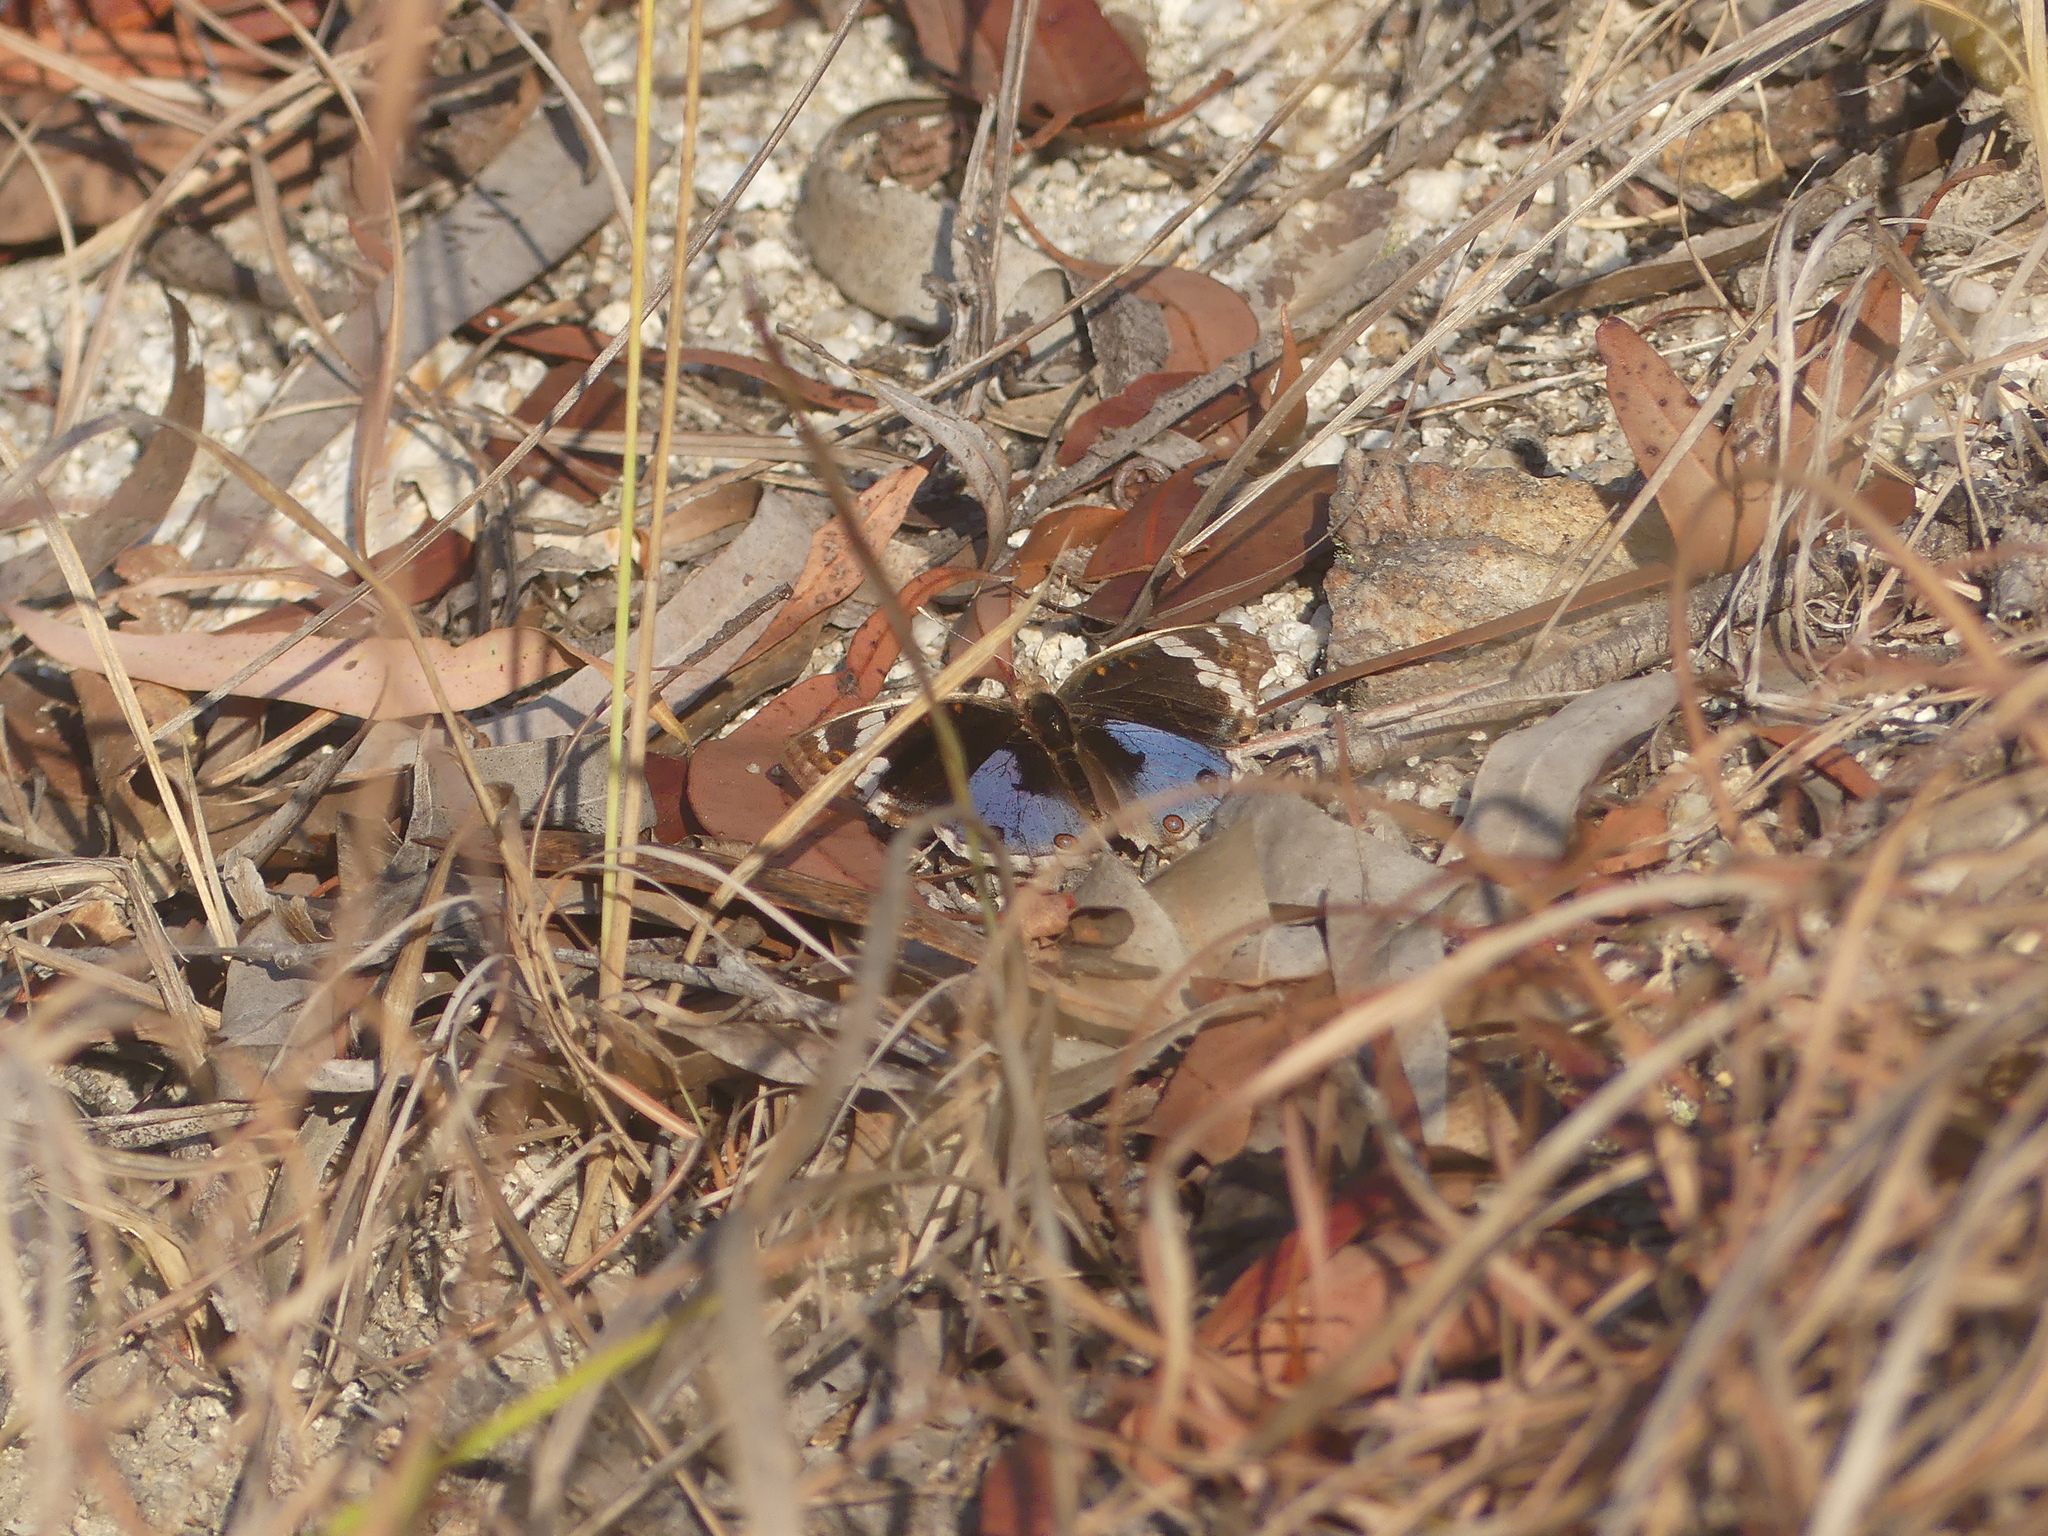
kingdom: Animalia
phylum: Arthropoda
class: Insecta
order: Lepidoptera
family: Nymphalidae
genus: Junonia
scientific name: Junonia orithya
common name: Blue pansy
